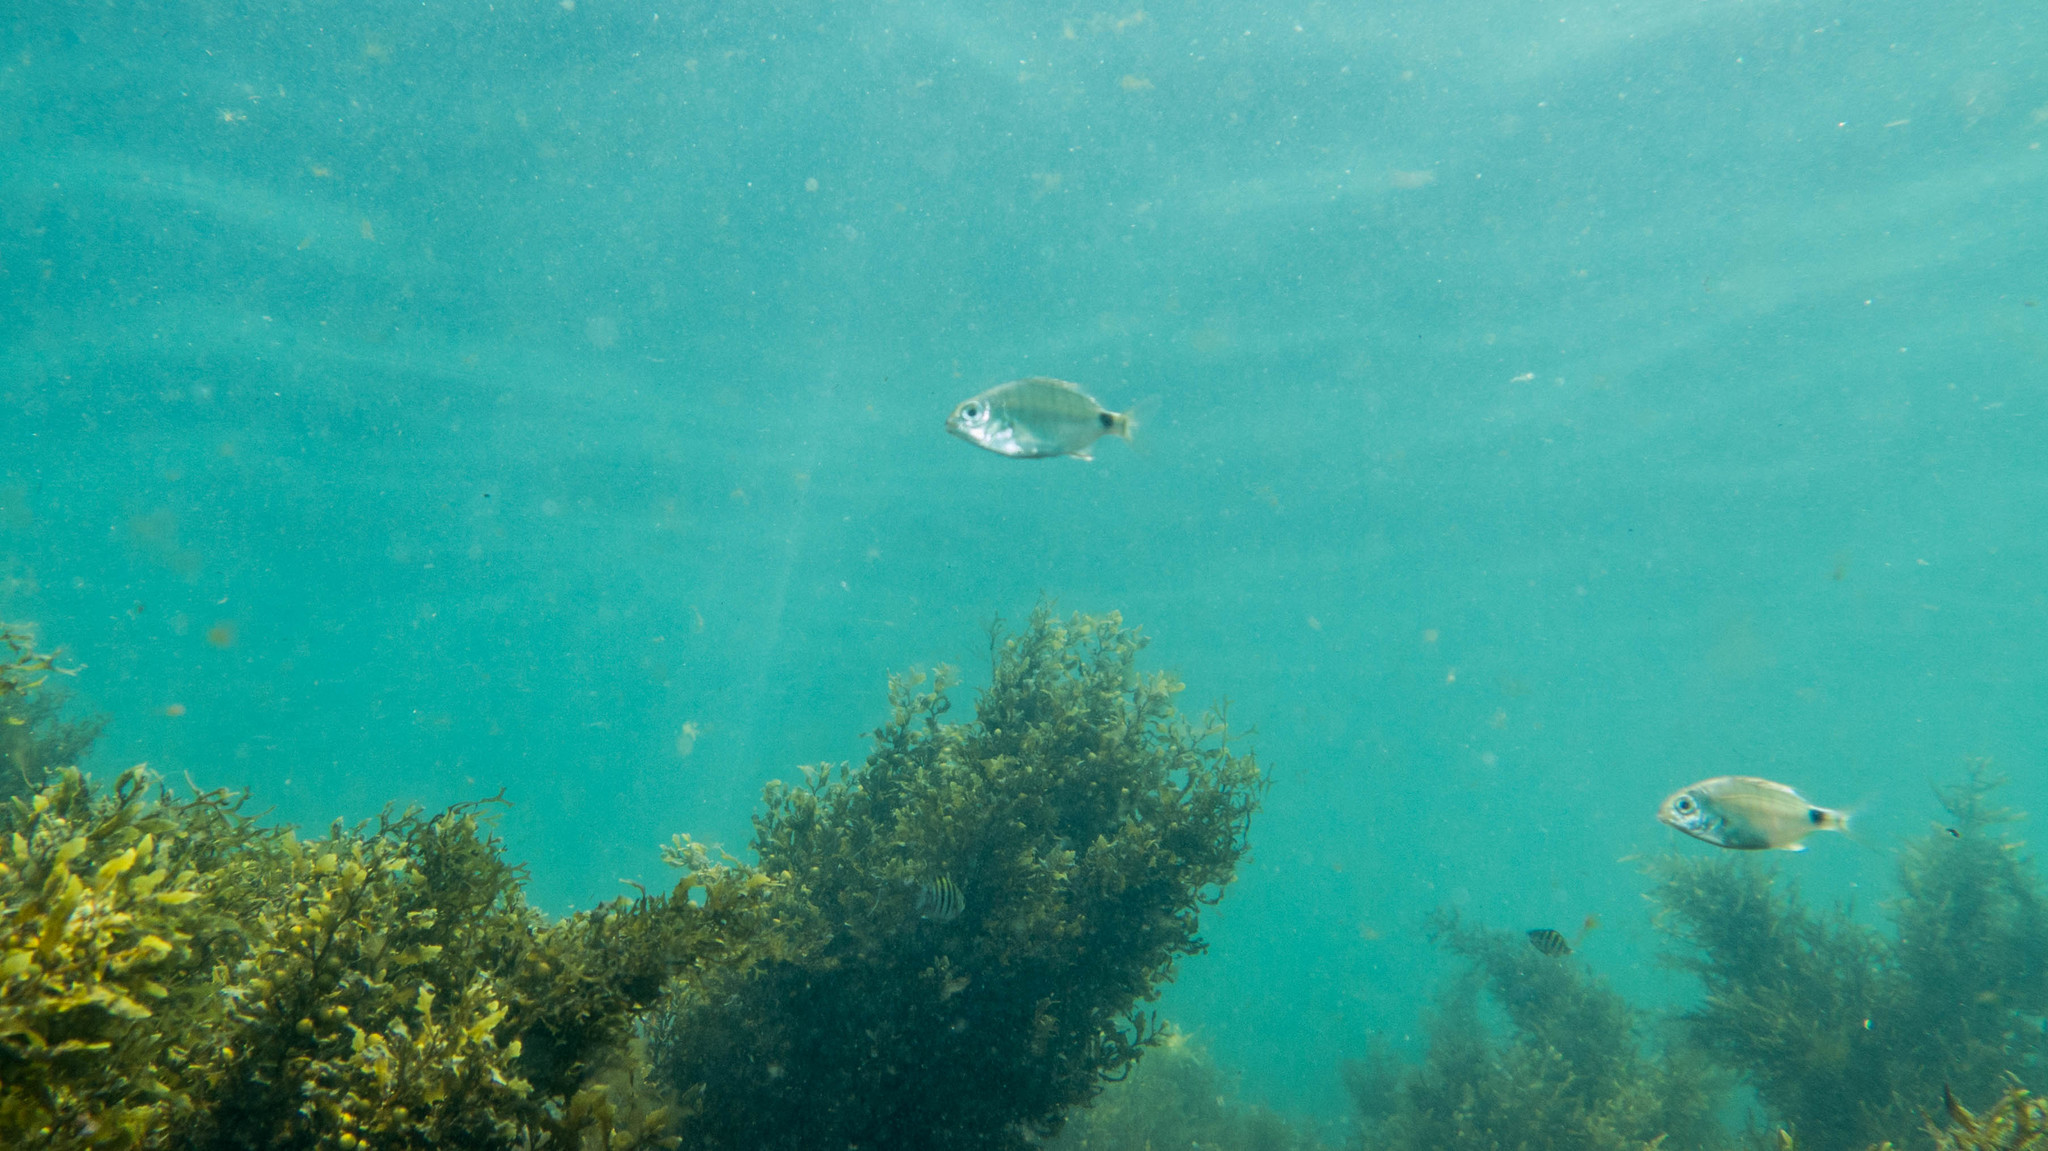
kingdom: Animalia
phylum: Chordata
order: Perciformes
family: Sparidae
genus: Diplodus
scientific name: Diplodus argenteus
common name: South-american silver porgy
